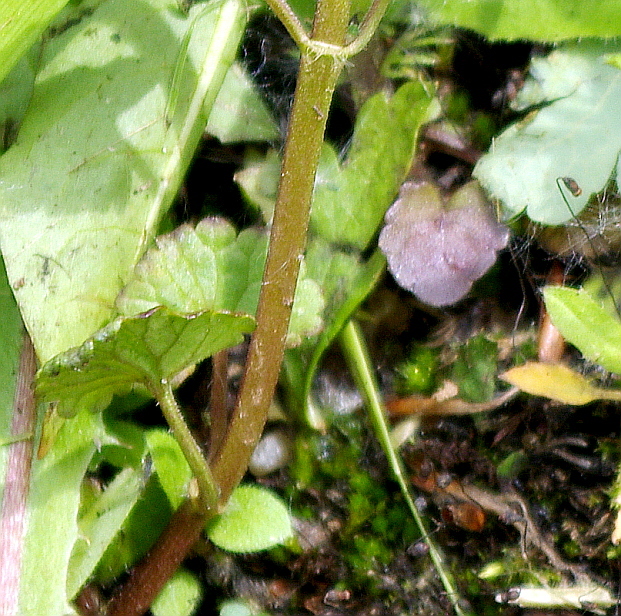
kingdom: Plantae
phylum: Tracheophyta
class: Magnoliopsida
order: Lamiales
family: Lamiaceae
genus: Glechoma
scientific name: Glechoma hederacea
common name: Ground ivy
